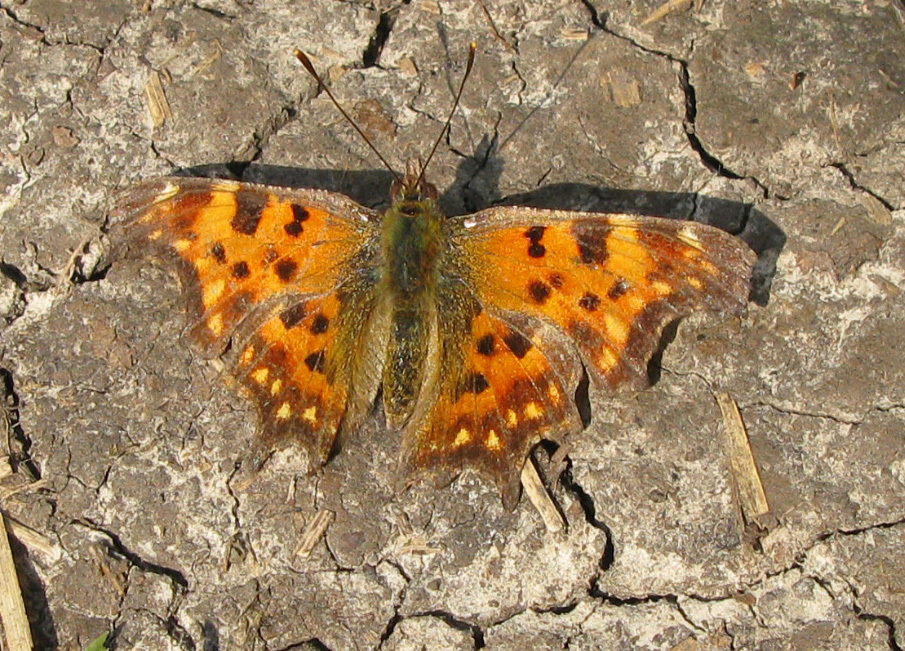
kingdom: Animalia
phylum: Arthropoda
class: Insecta
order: Lepidoptera
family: Nymphalidae
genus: Polygonia
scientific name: Polygonia c-album
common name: Comma
